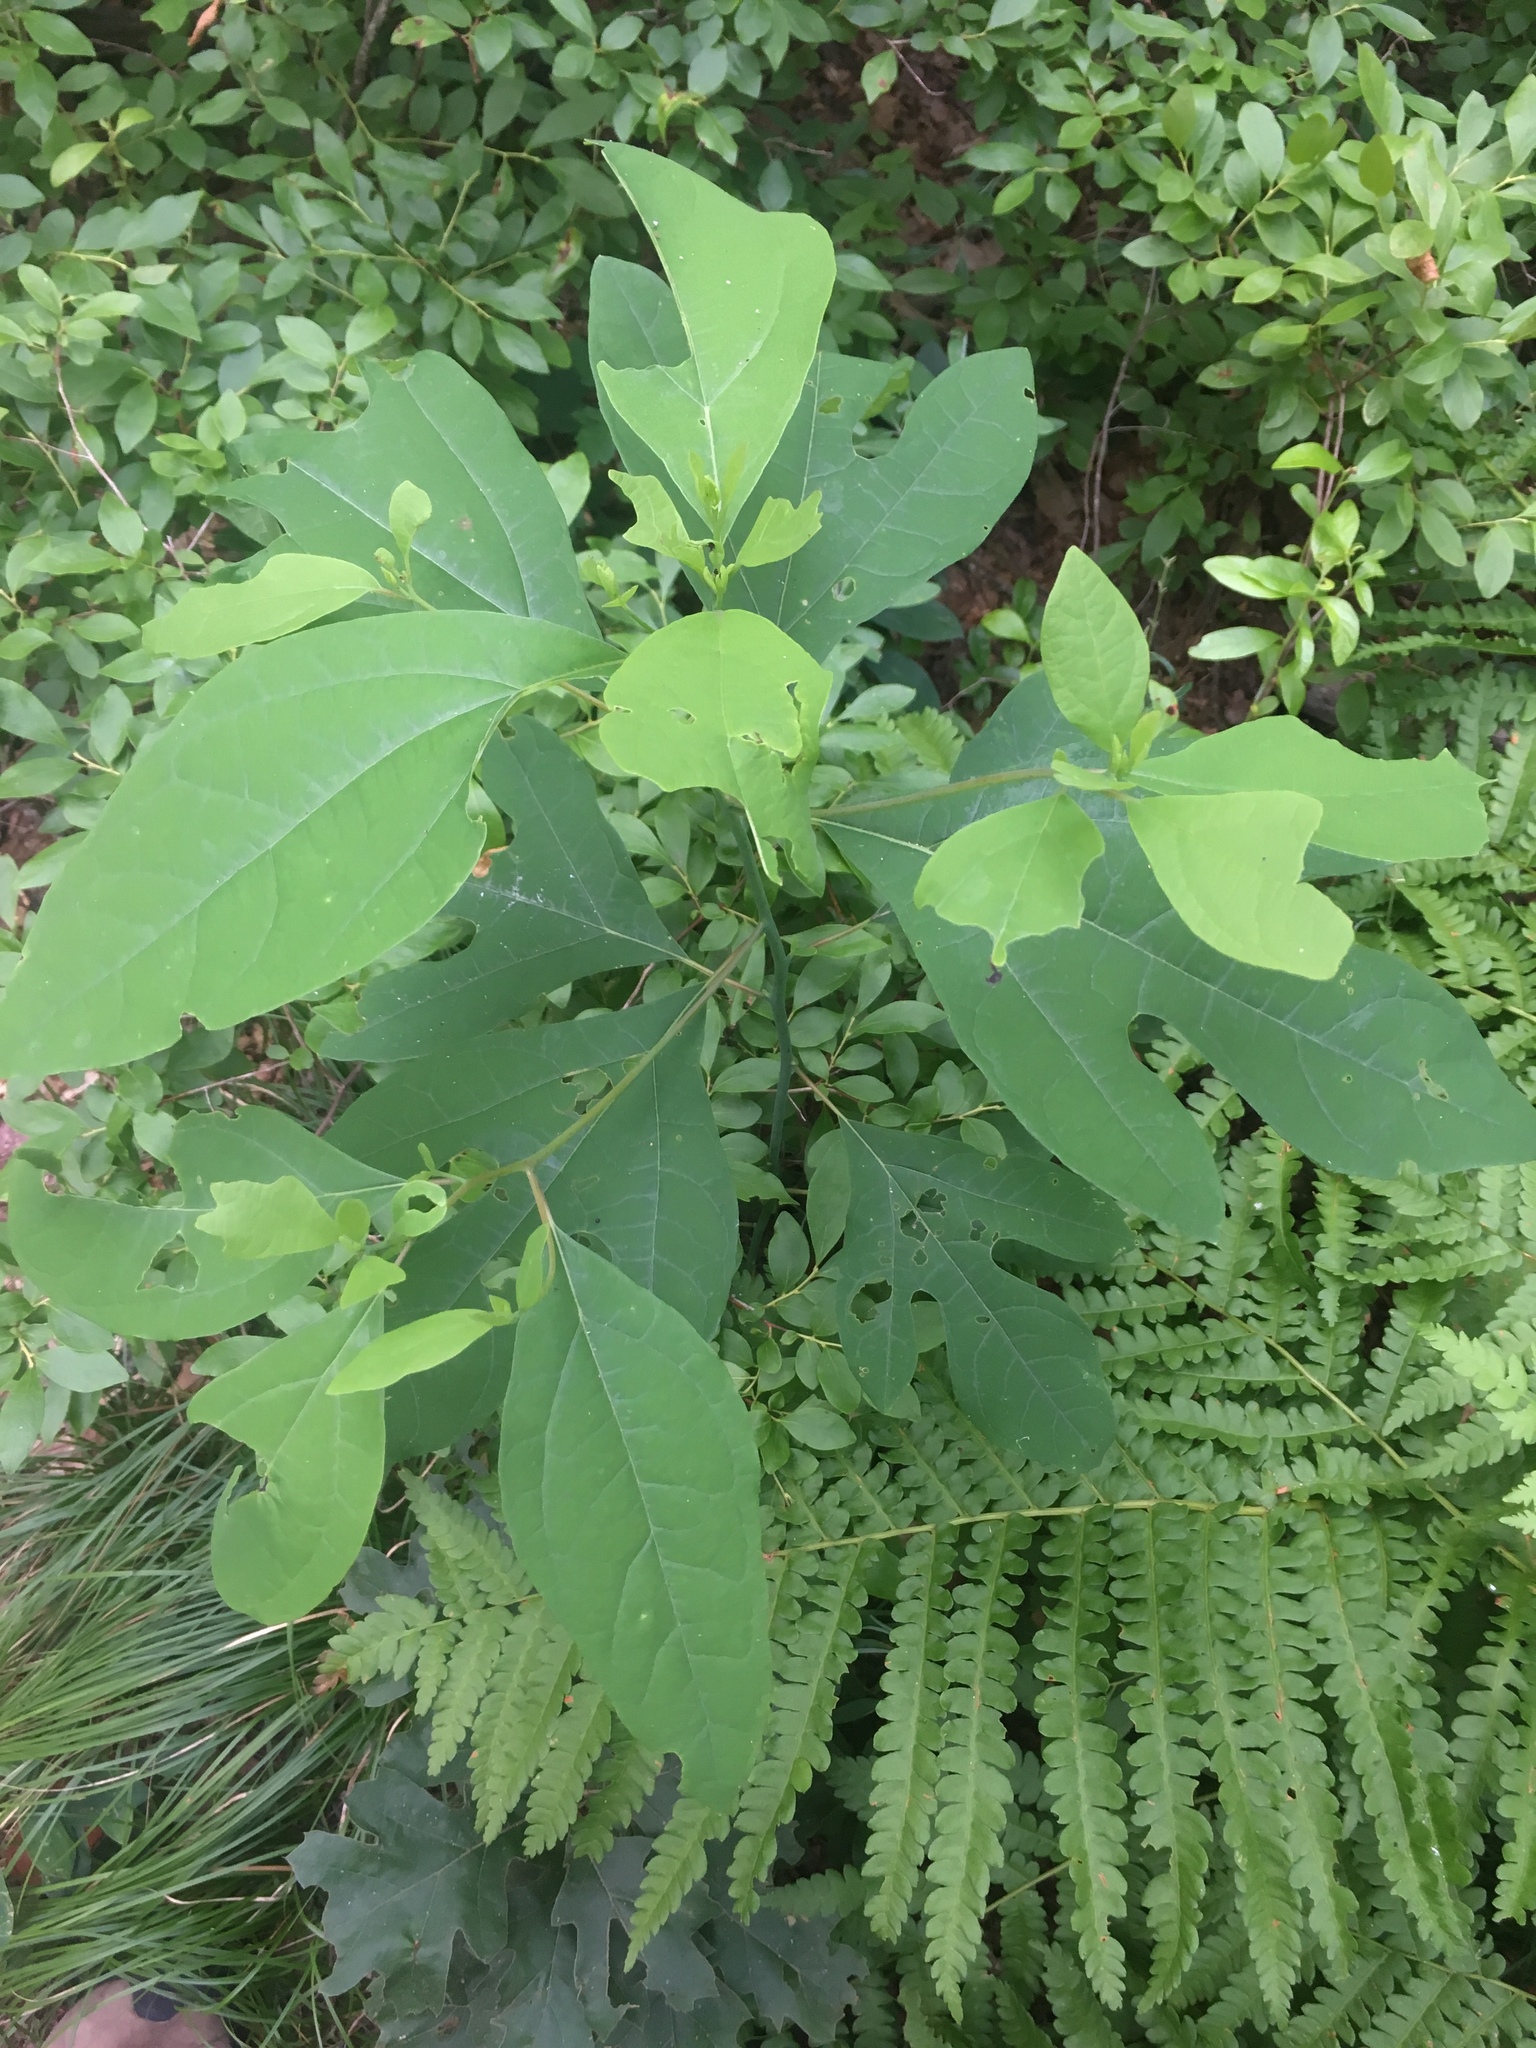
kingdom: Plantae
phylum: Tracheophyta
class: Magnoliopsida
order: Laurales
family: Lauraceae
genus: Sassafras
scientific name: Sassafras albidum
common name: Sassafras
